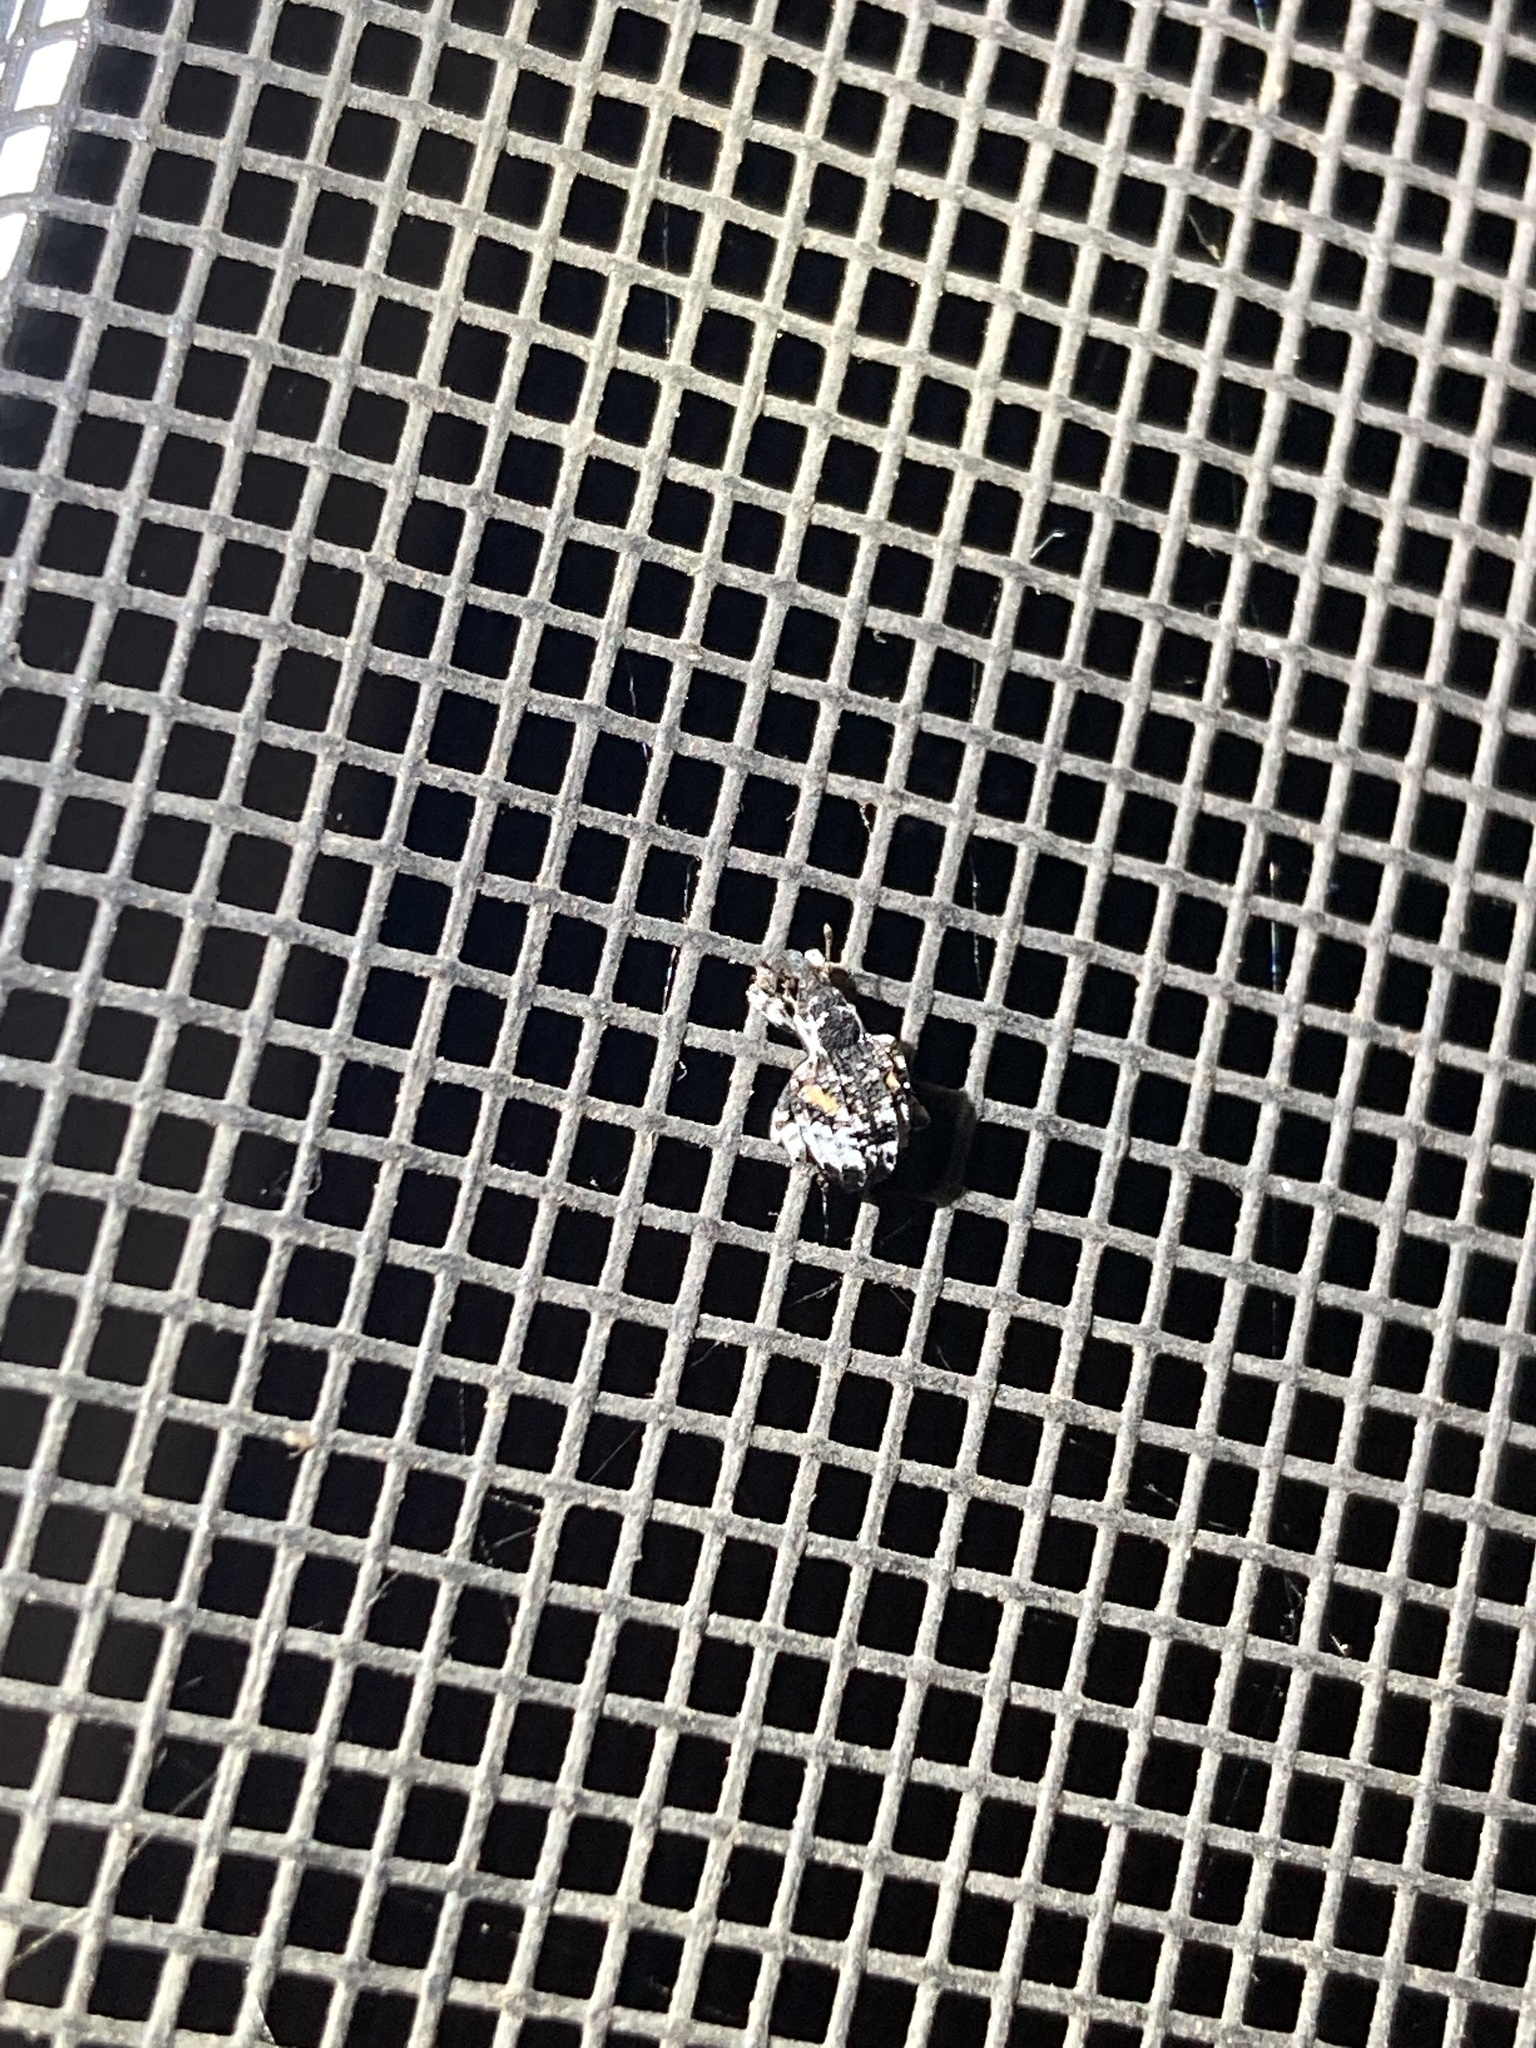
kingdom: Animalia
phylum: Arthropoda
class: Insecta
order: Coleoptera
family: Curculionidae
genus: Conotrachelus
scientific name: Conotrachelus anaglypticus
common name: Cambium curculio
